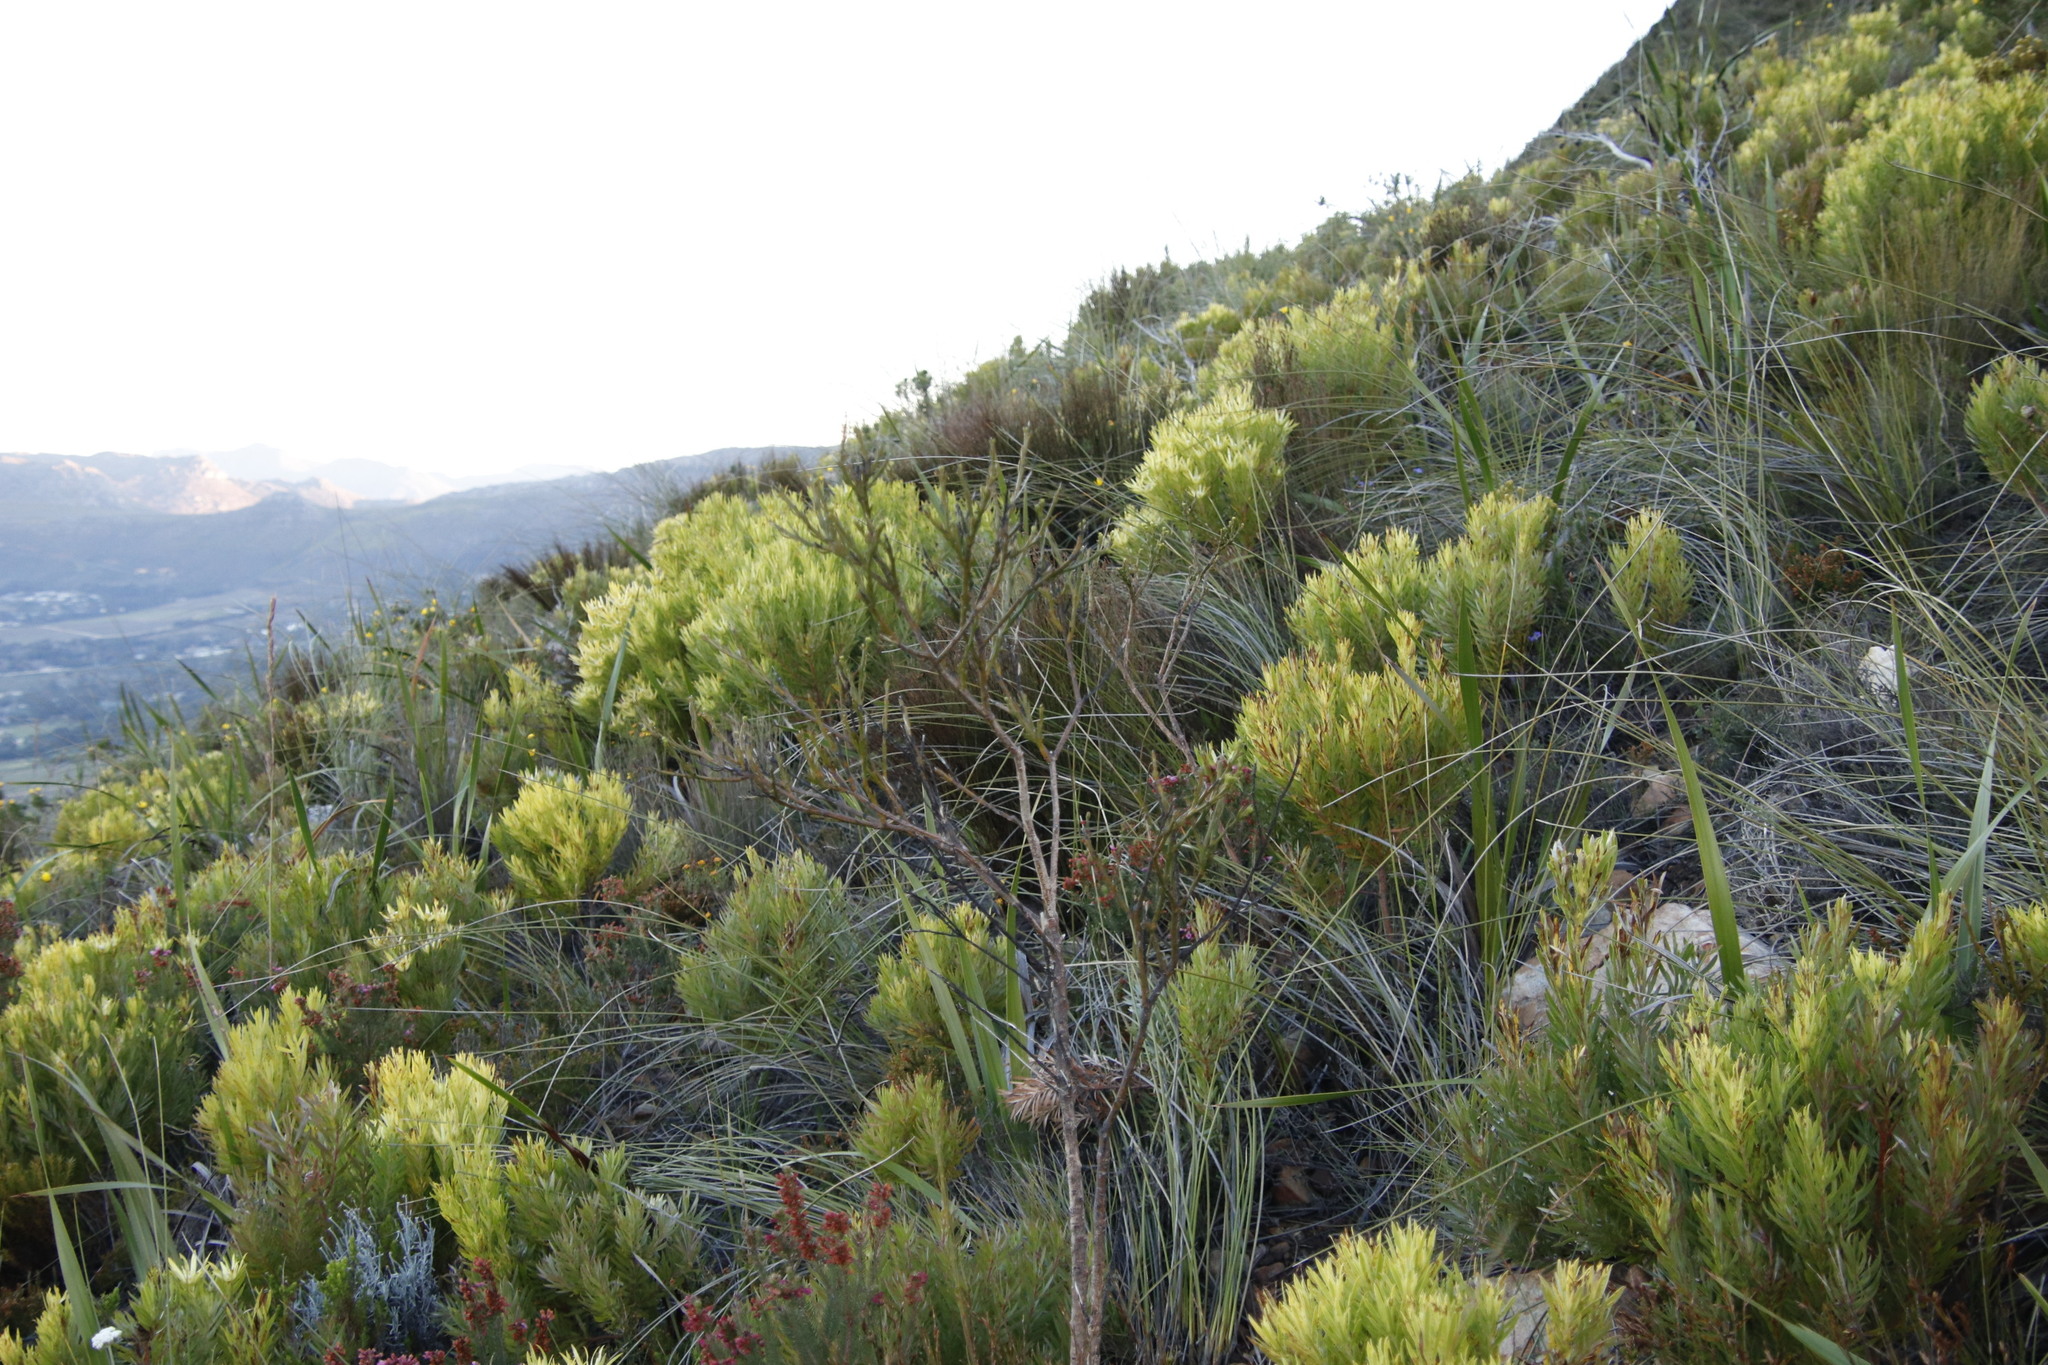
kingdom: Plantae
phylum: Tracheophyta
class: Magnoliopsida
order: Santalales
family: Thesiaceae
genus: Thesium
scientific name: Thesium strictum
